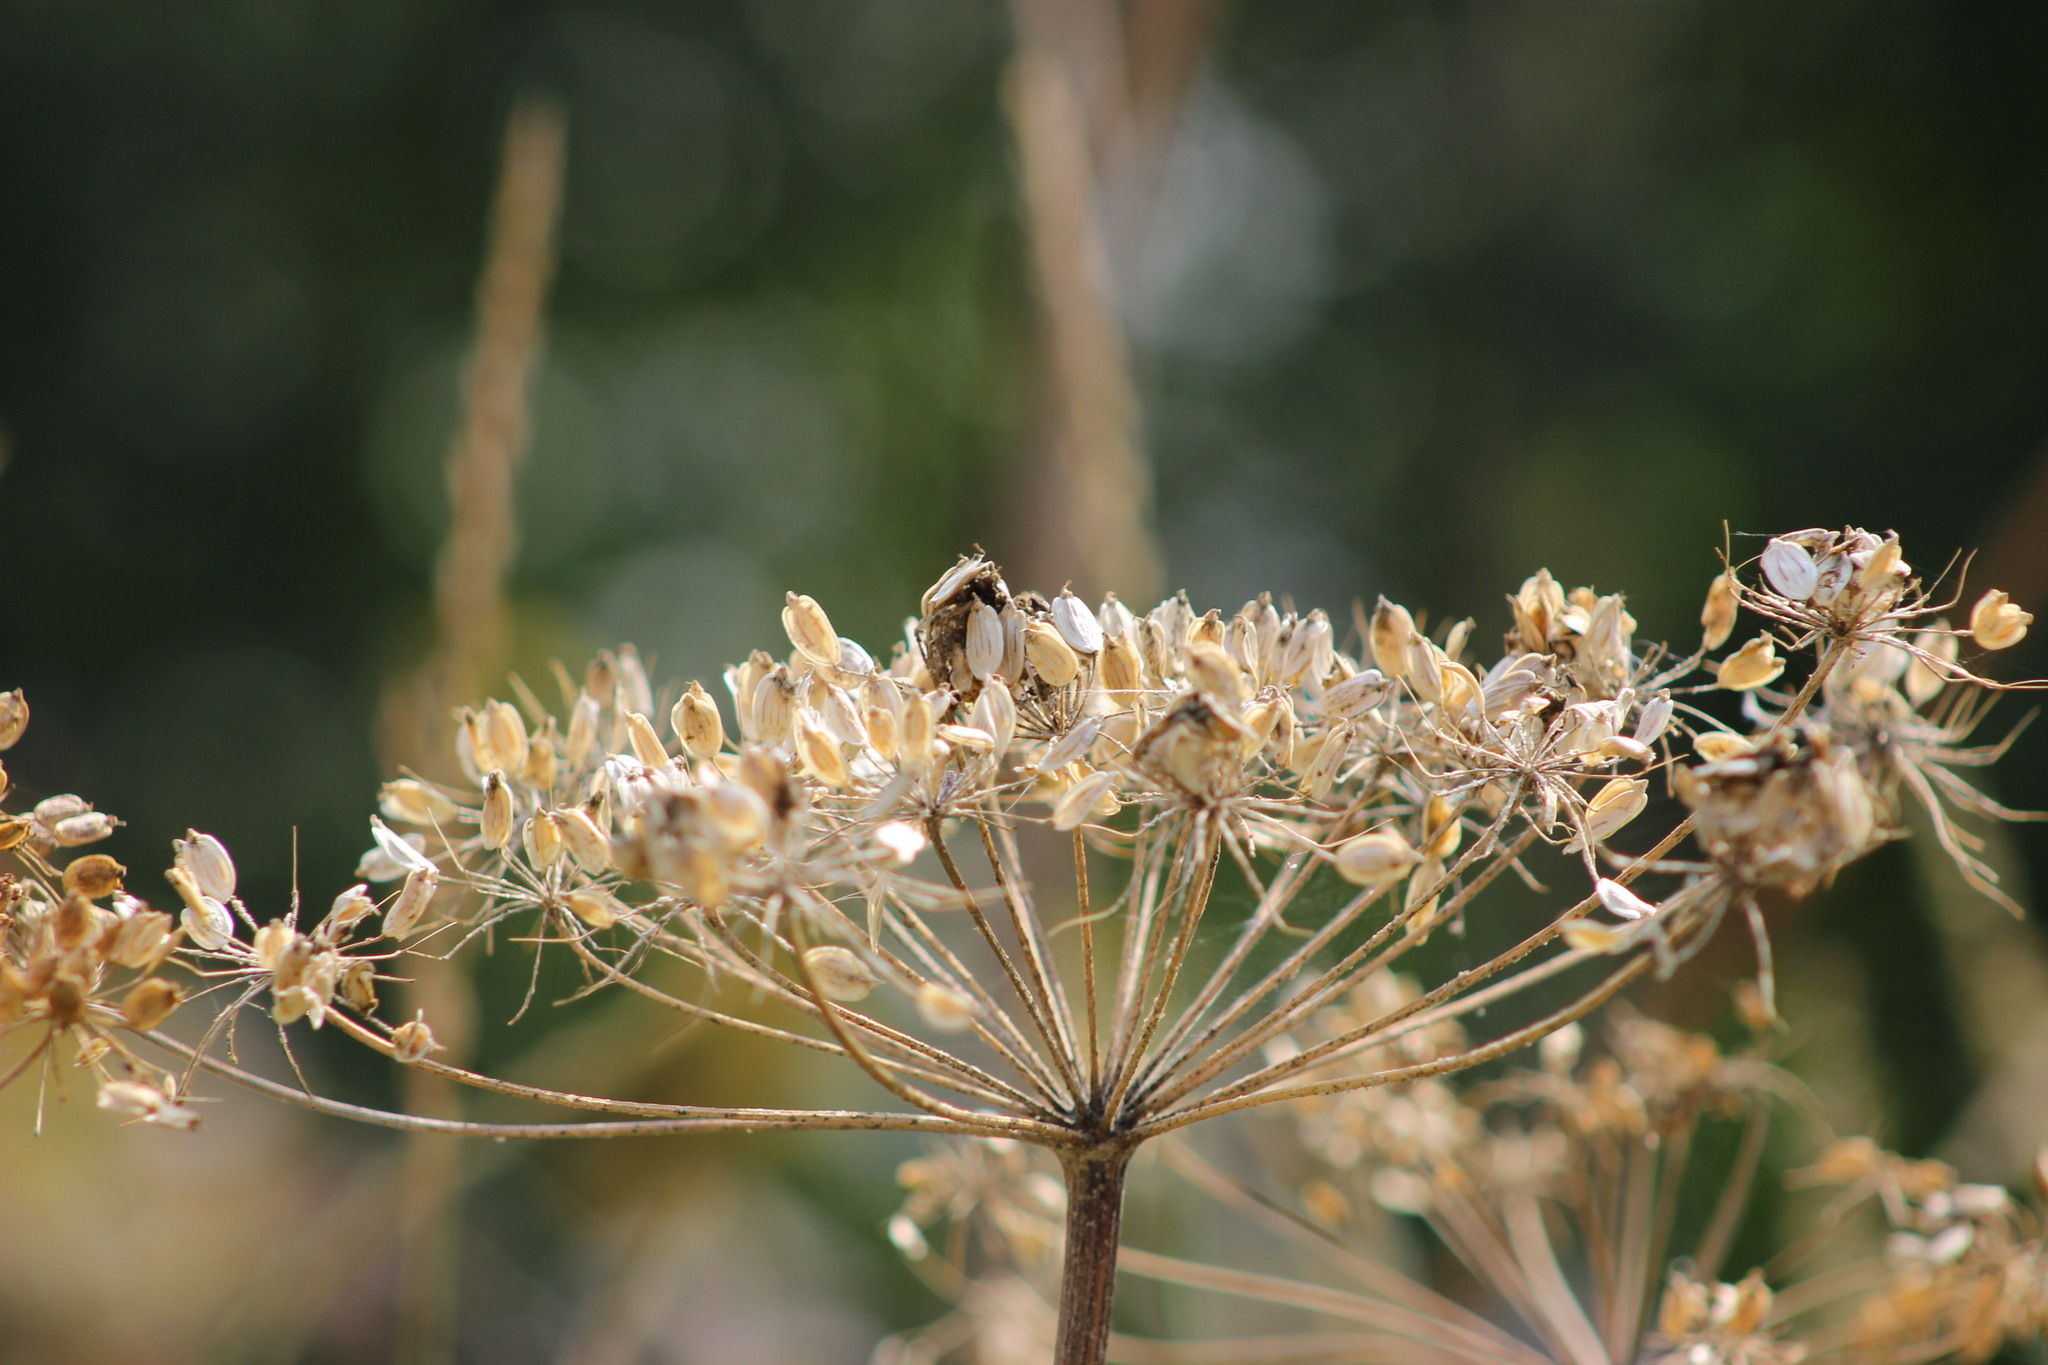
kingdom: Plantae
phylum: Tracheophyta
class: Magnoliopsida
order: Apiales
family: Apiaceae
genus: Heracleum
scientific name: Heracleum sphondylium
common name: Hogweed
